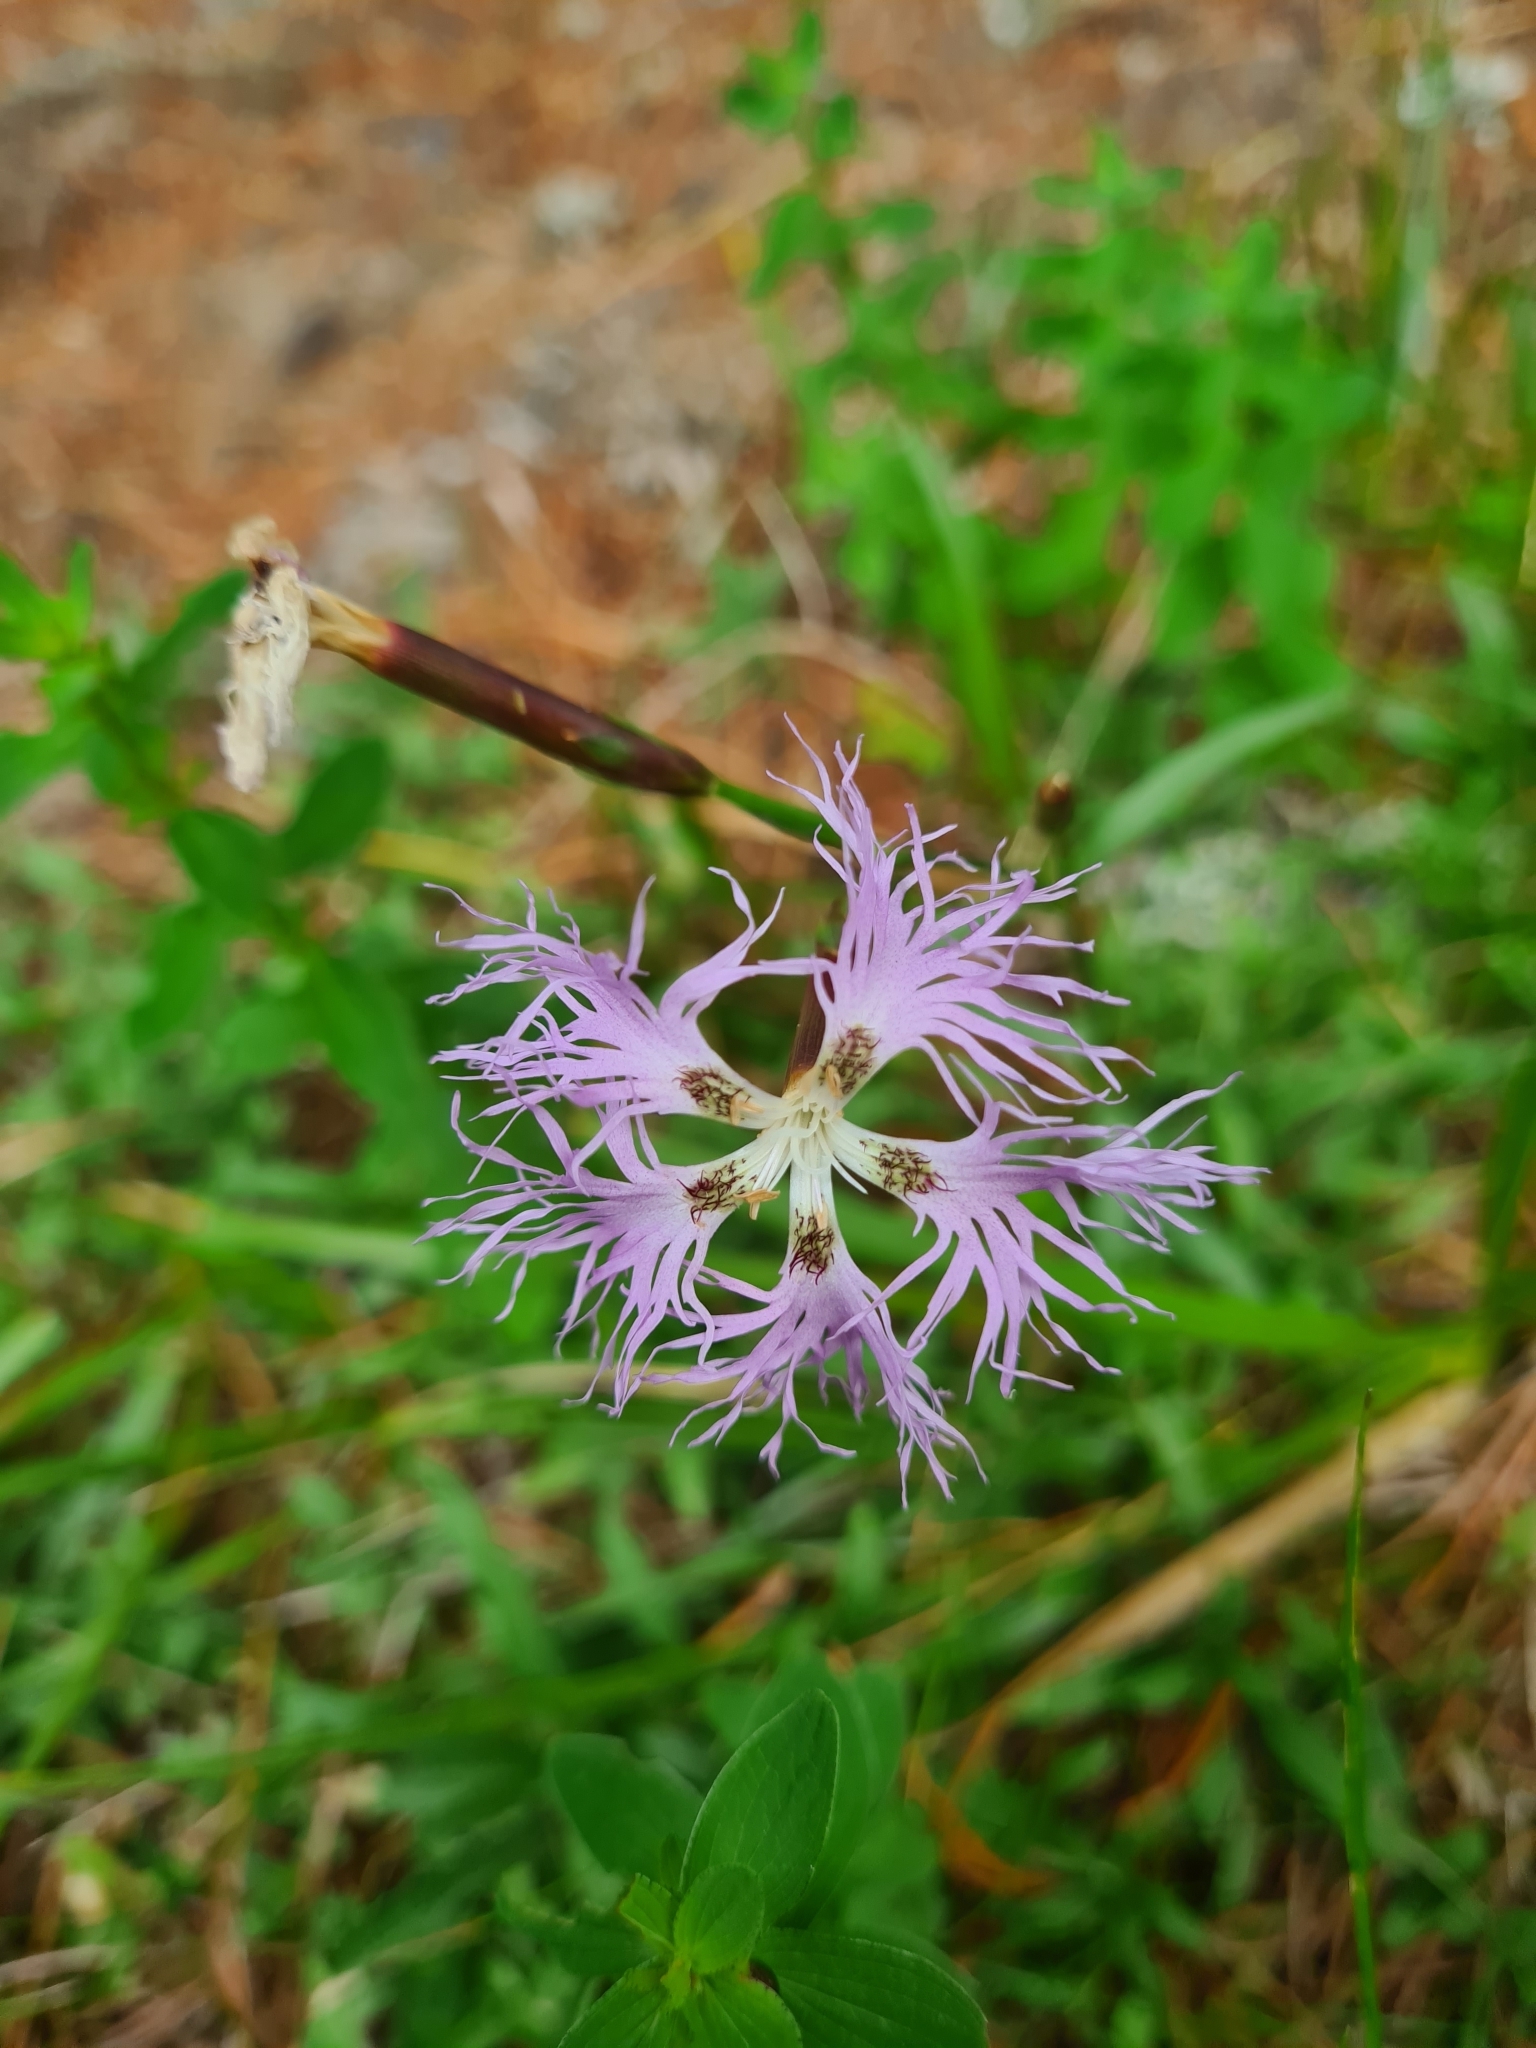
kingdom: Plantae
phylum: Tracheophyta
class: Magnoliopsida
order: Caryophyllales
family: Caryophyllaceae
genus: Dianthus
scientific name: Dianthus superbus
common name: Fringed pink
